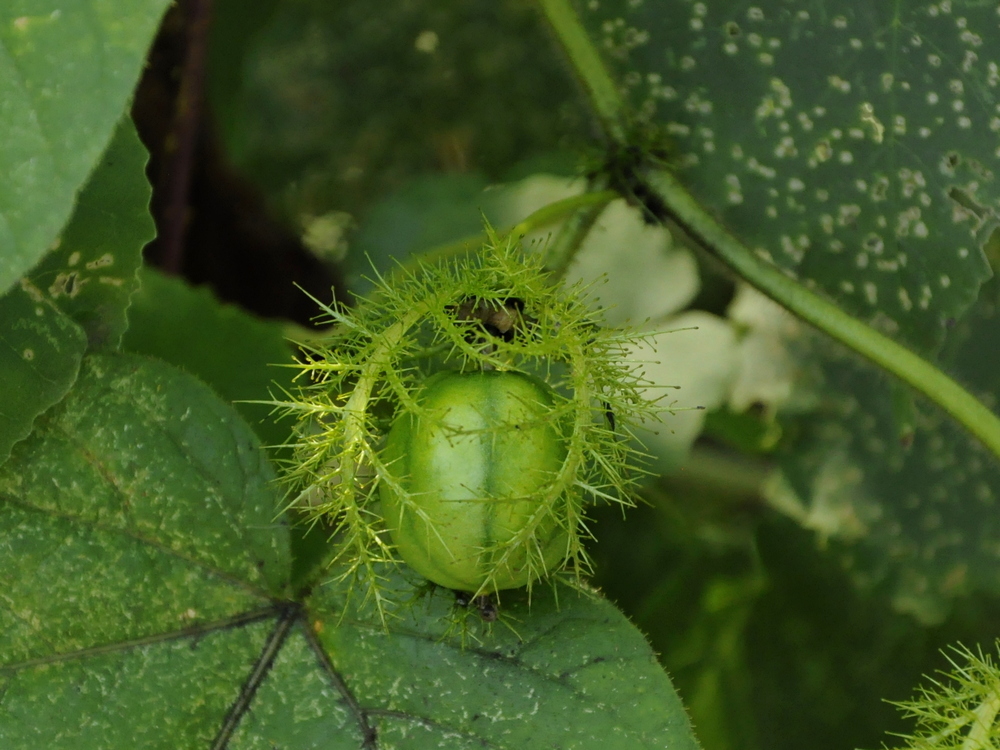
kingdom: Plantae
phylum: Tracheophyta
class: Magnoliopsida
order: Malpighiales
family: Passifloraceae
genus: Passiflora
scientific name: Passiflora foetida
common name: Fetid passionflower
